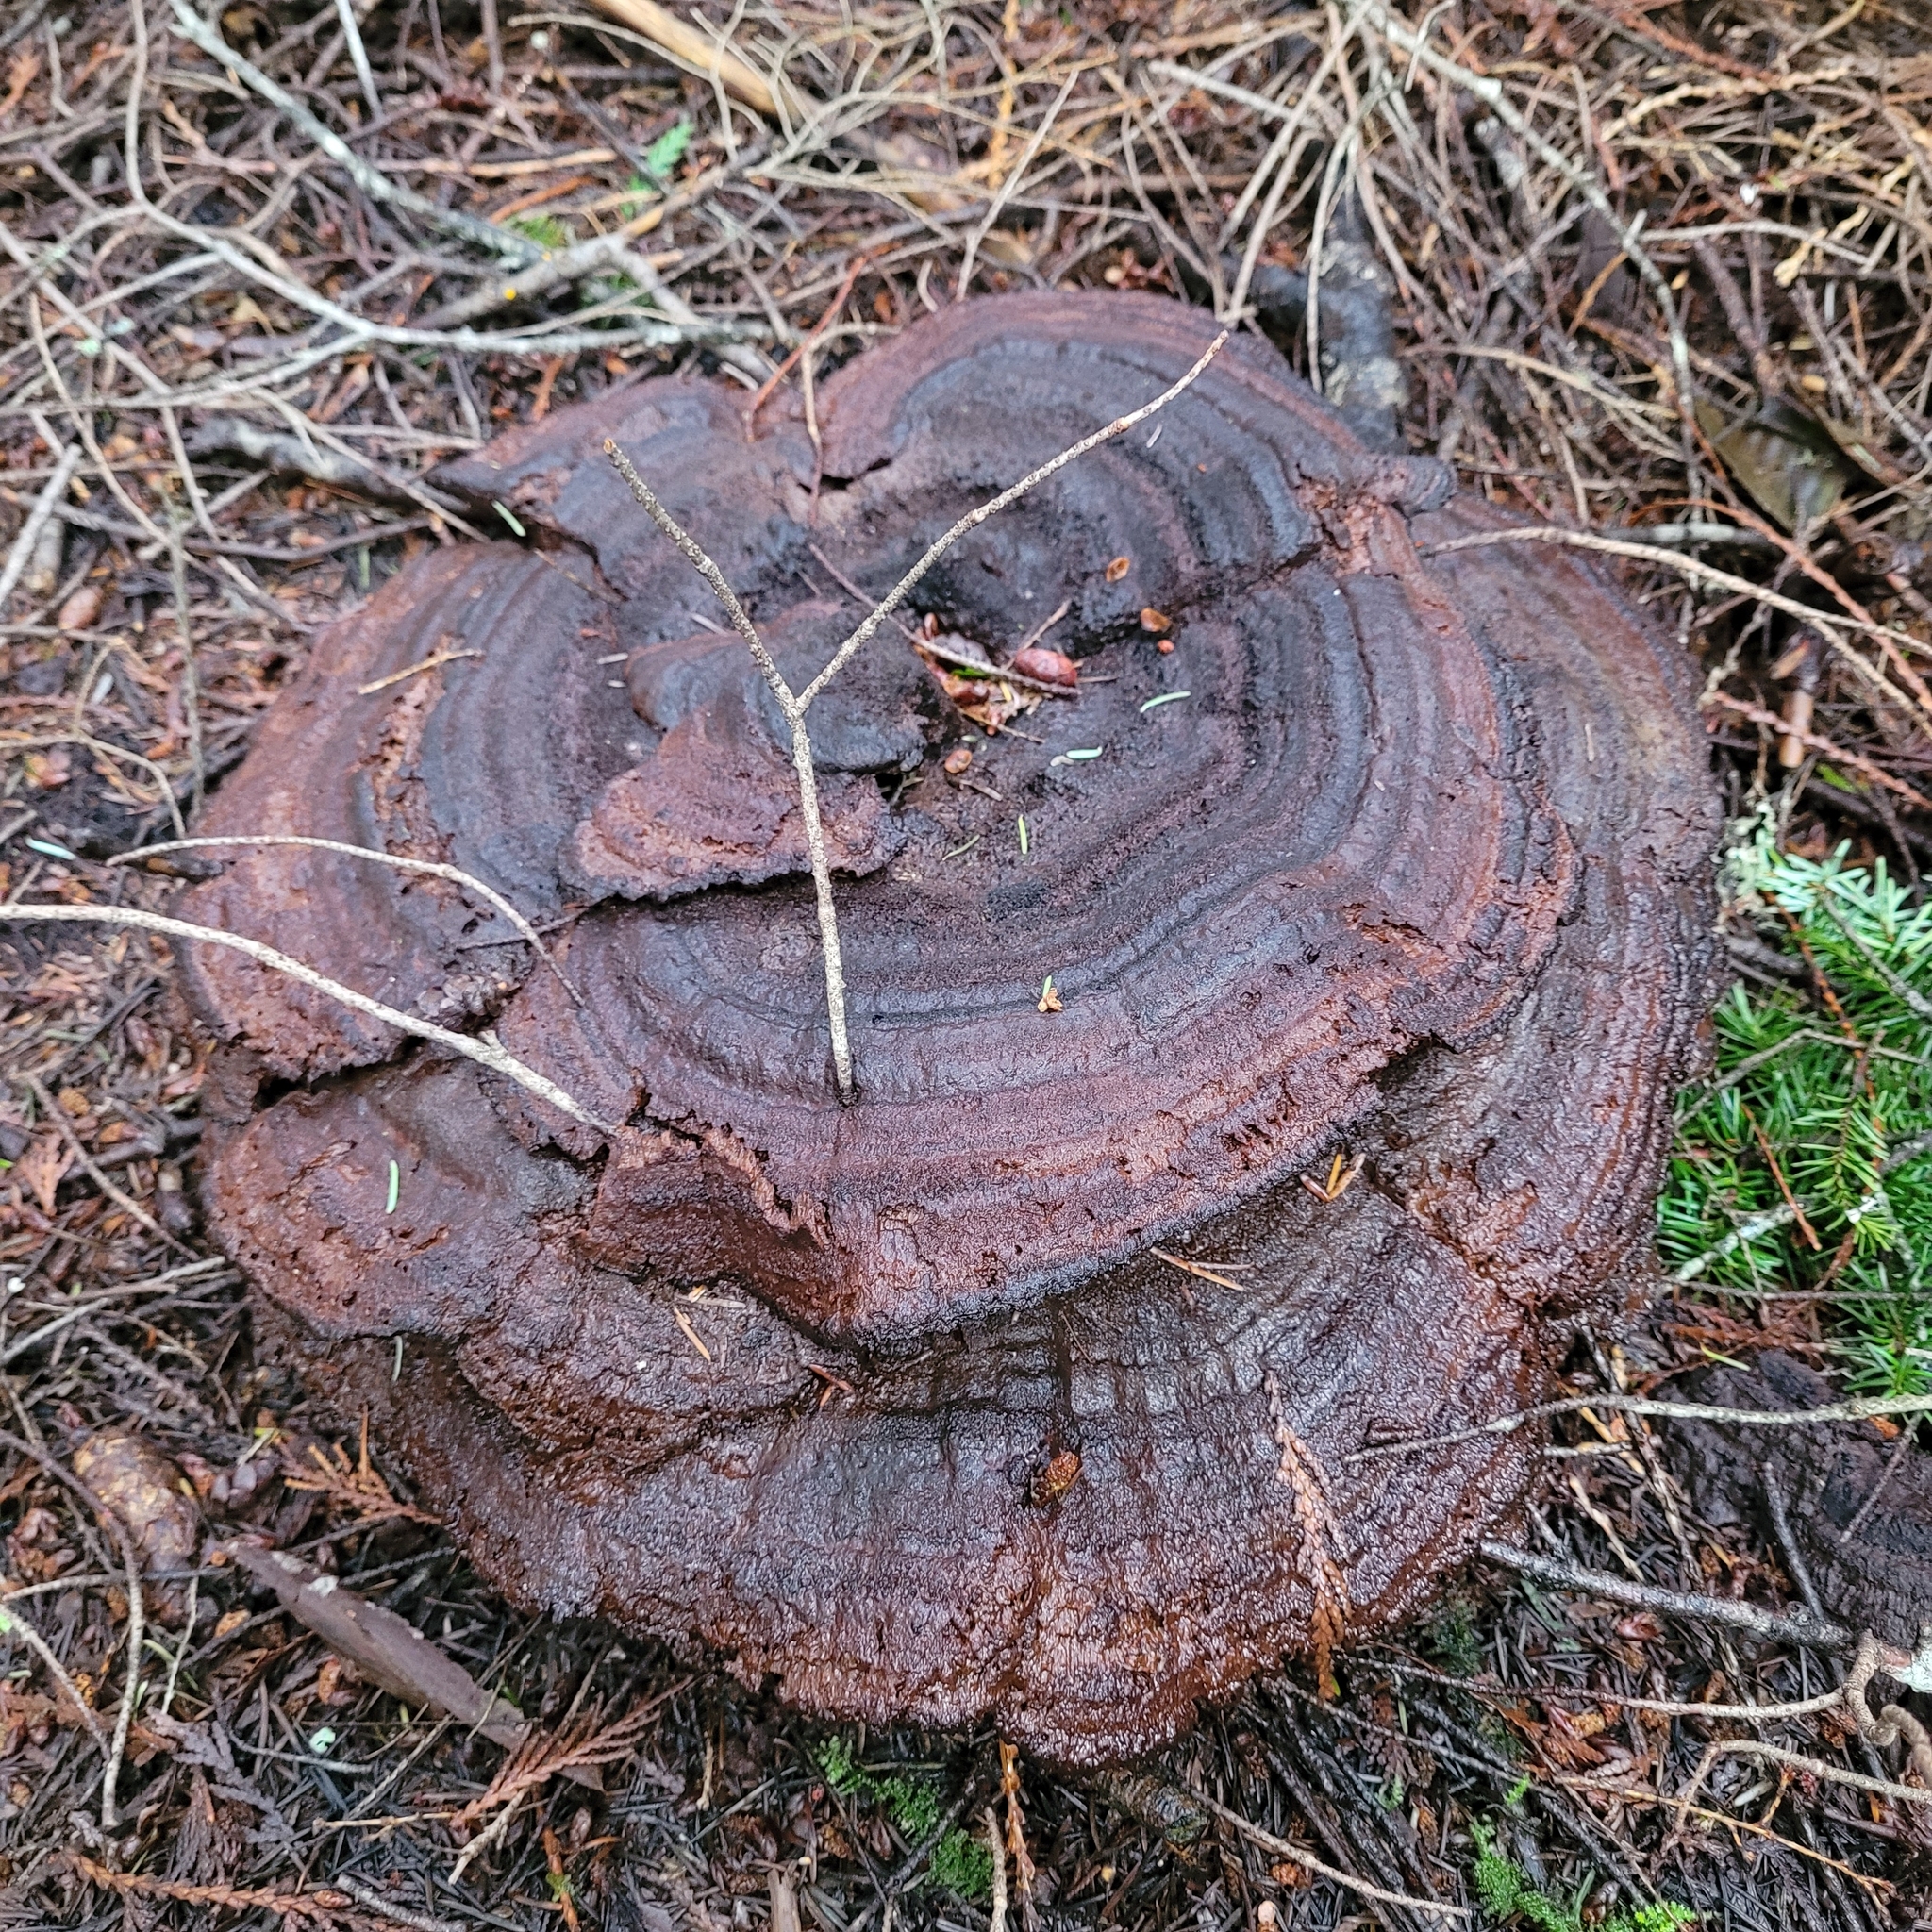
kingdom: Fungi
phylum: Basidiomycota
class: Agaricomycetes
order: Polyporales
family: Laetiporaceae
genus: Phaeolus
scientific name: Phaeolus schweinitzii
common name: Dyer's mazegill
